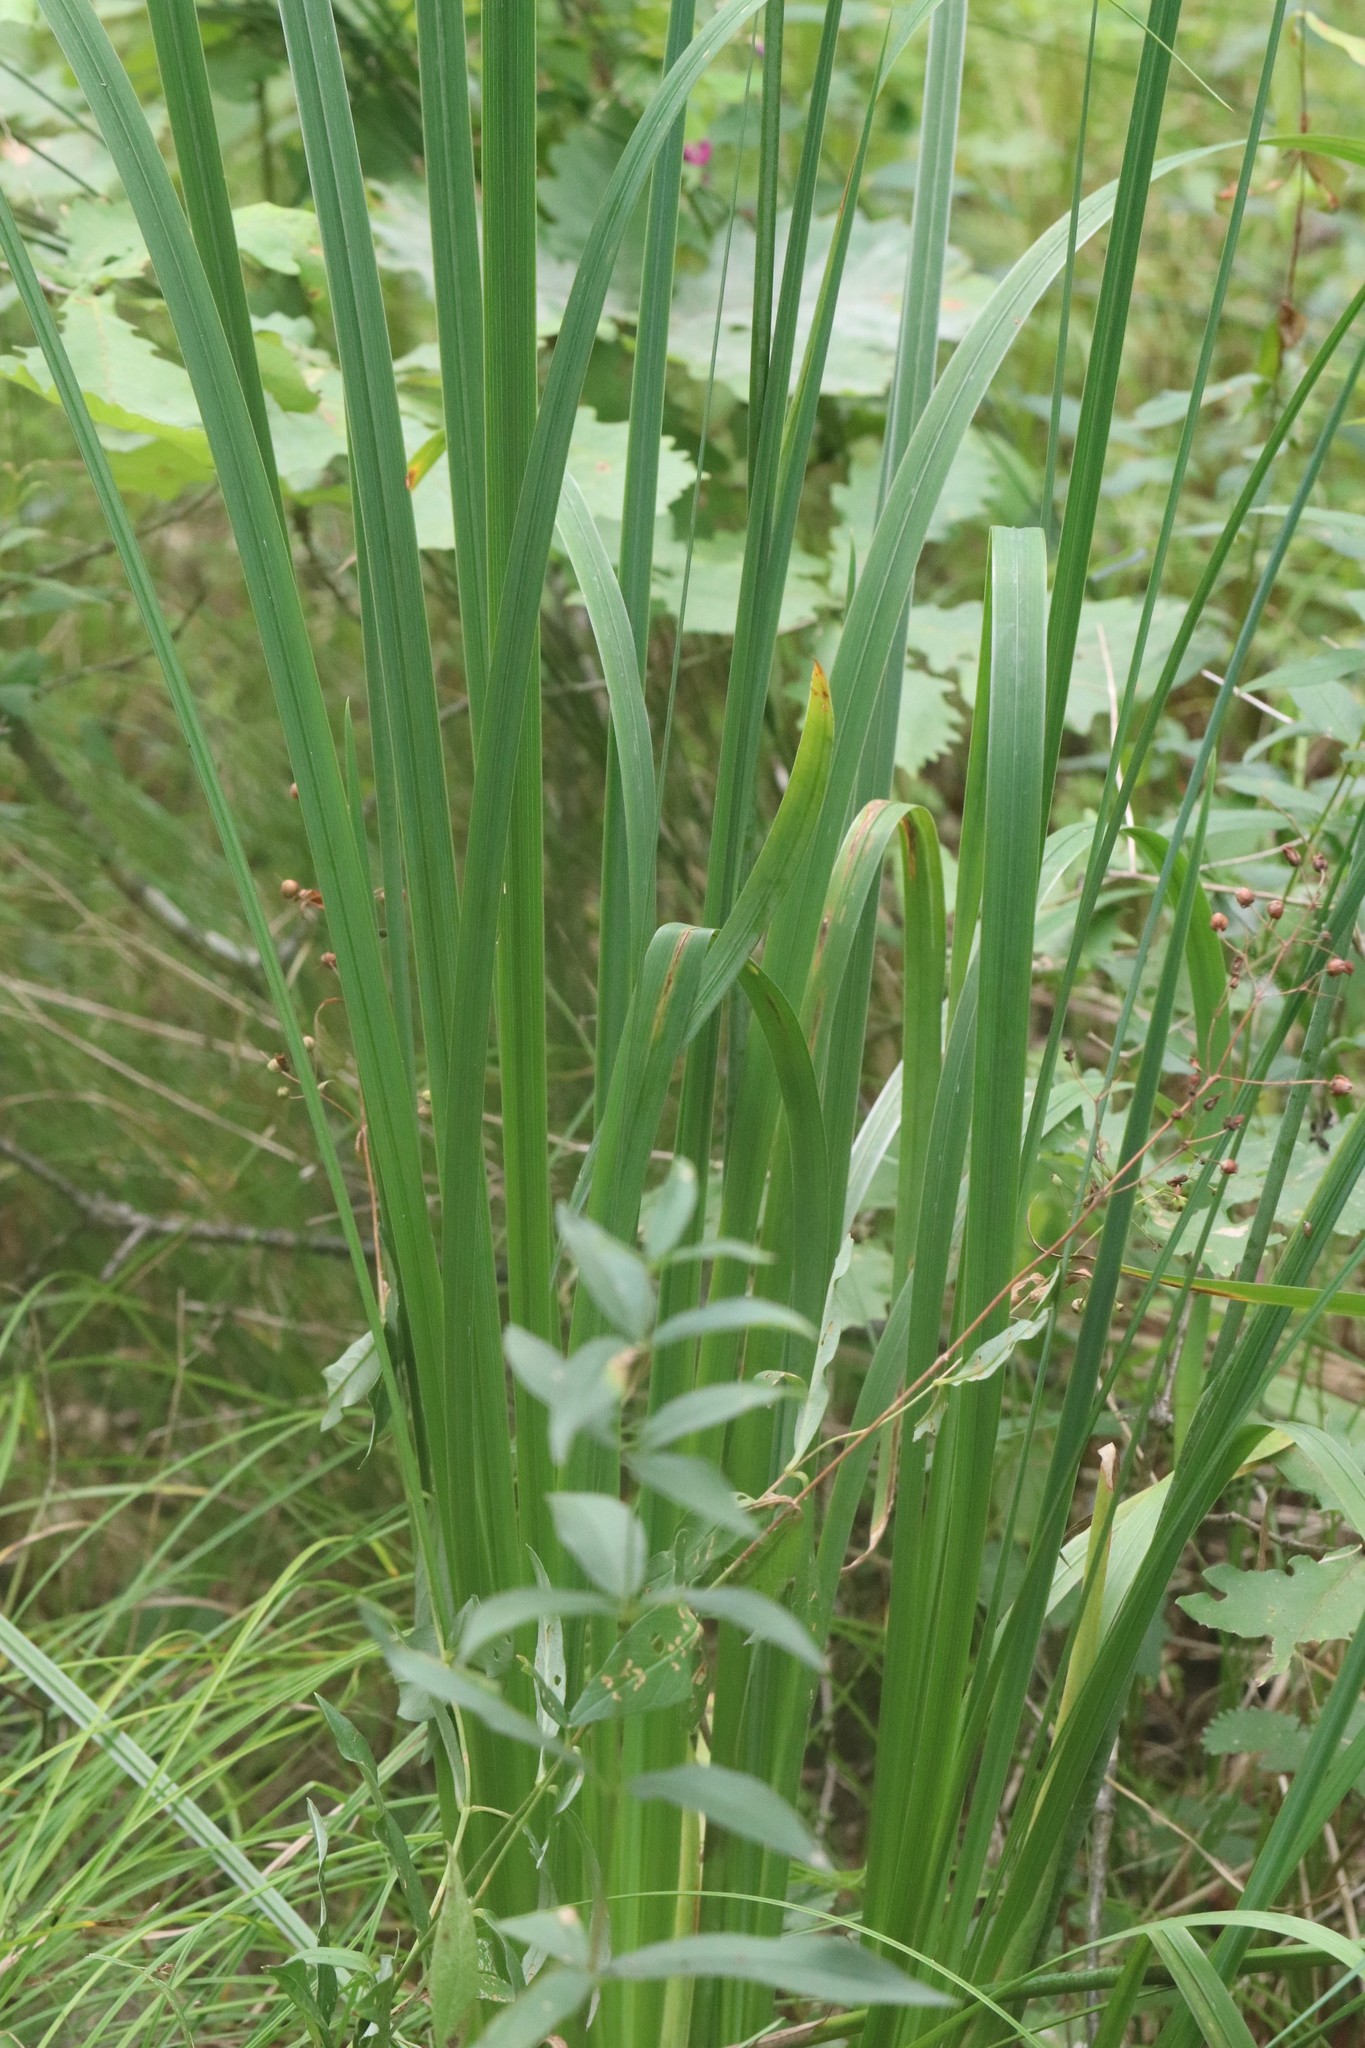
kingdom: Plantae
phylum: Tracheophyta
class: Liliopsida
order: Asparagales
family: Iridaceae
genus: Iris
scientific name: Iris ensata
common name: Beaked iris
